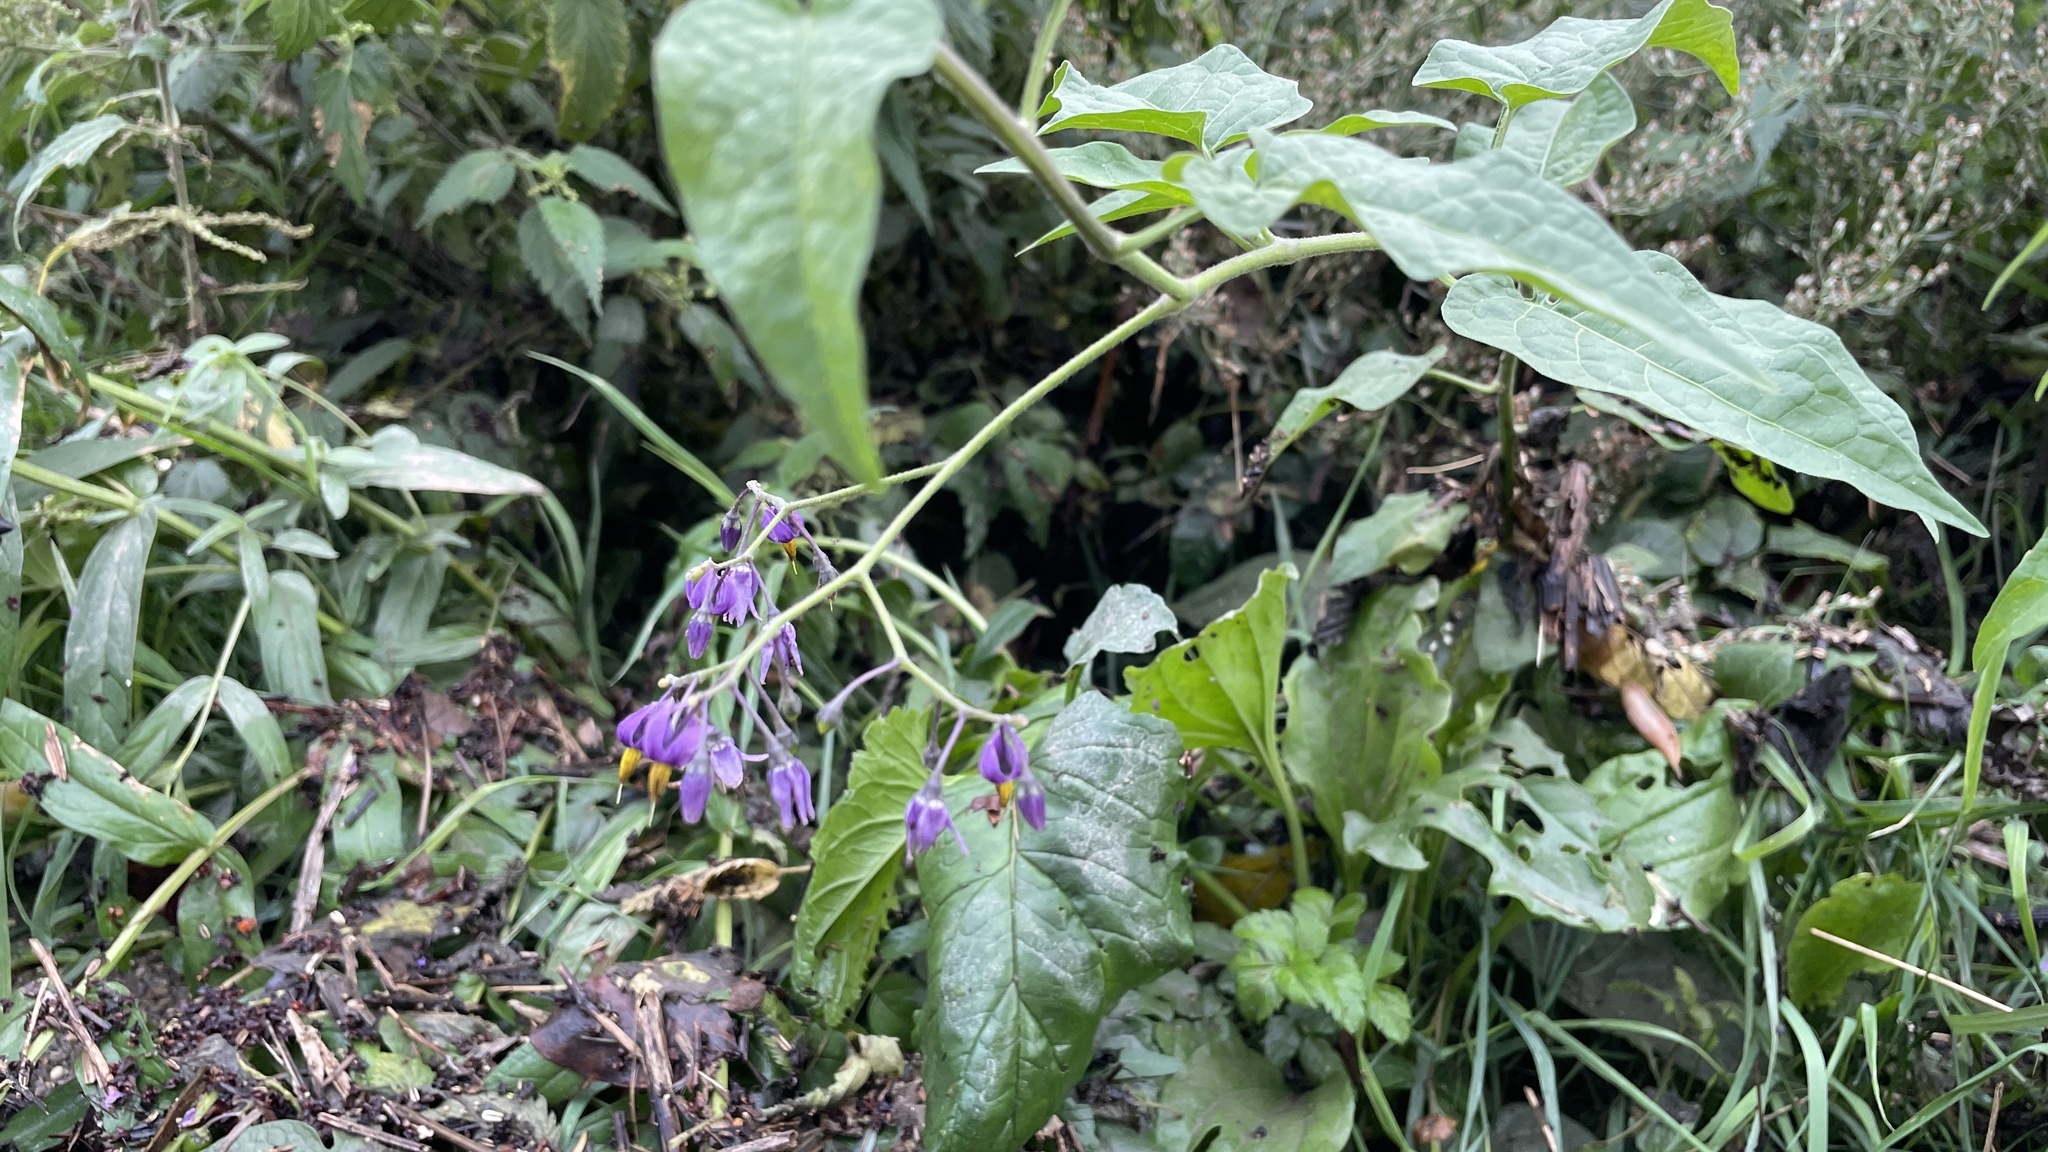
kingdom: Plantae
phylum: Tracheophyta
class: Magnoliopsida
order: Solanales
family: Solanaceae
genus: Solanum
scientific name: Solanum dulcamara
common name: Climbing nightshade
